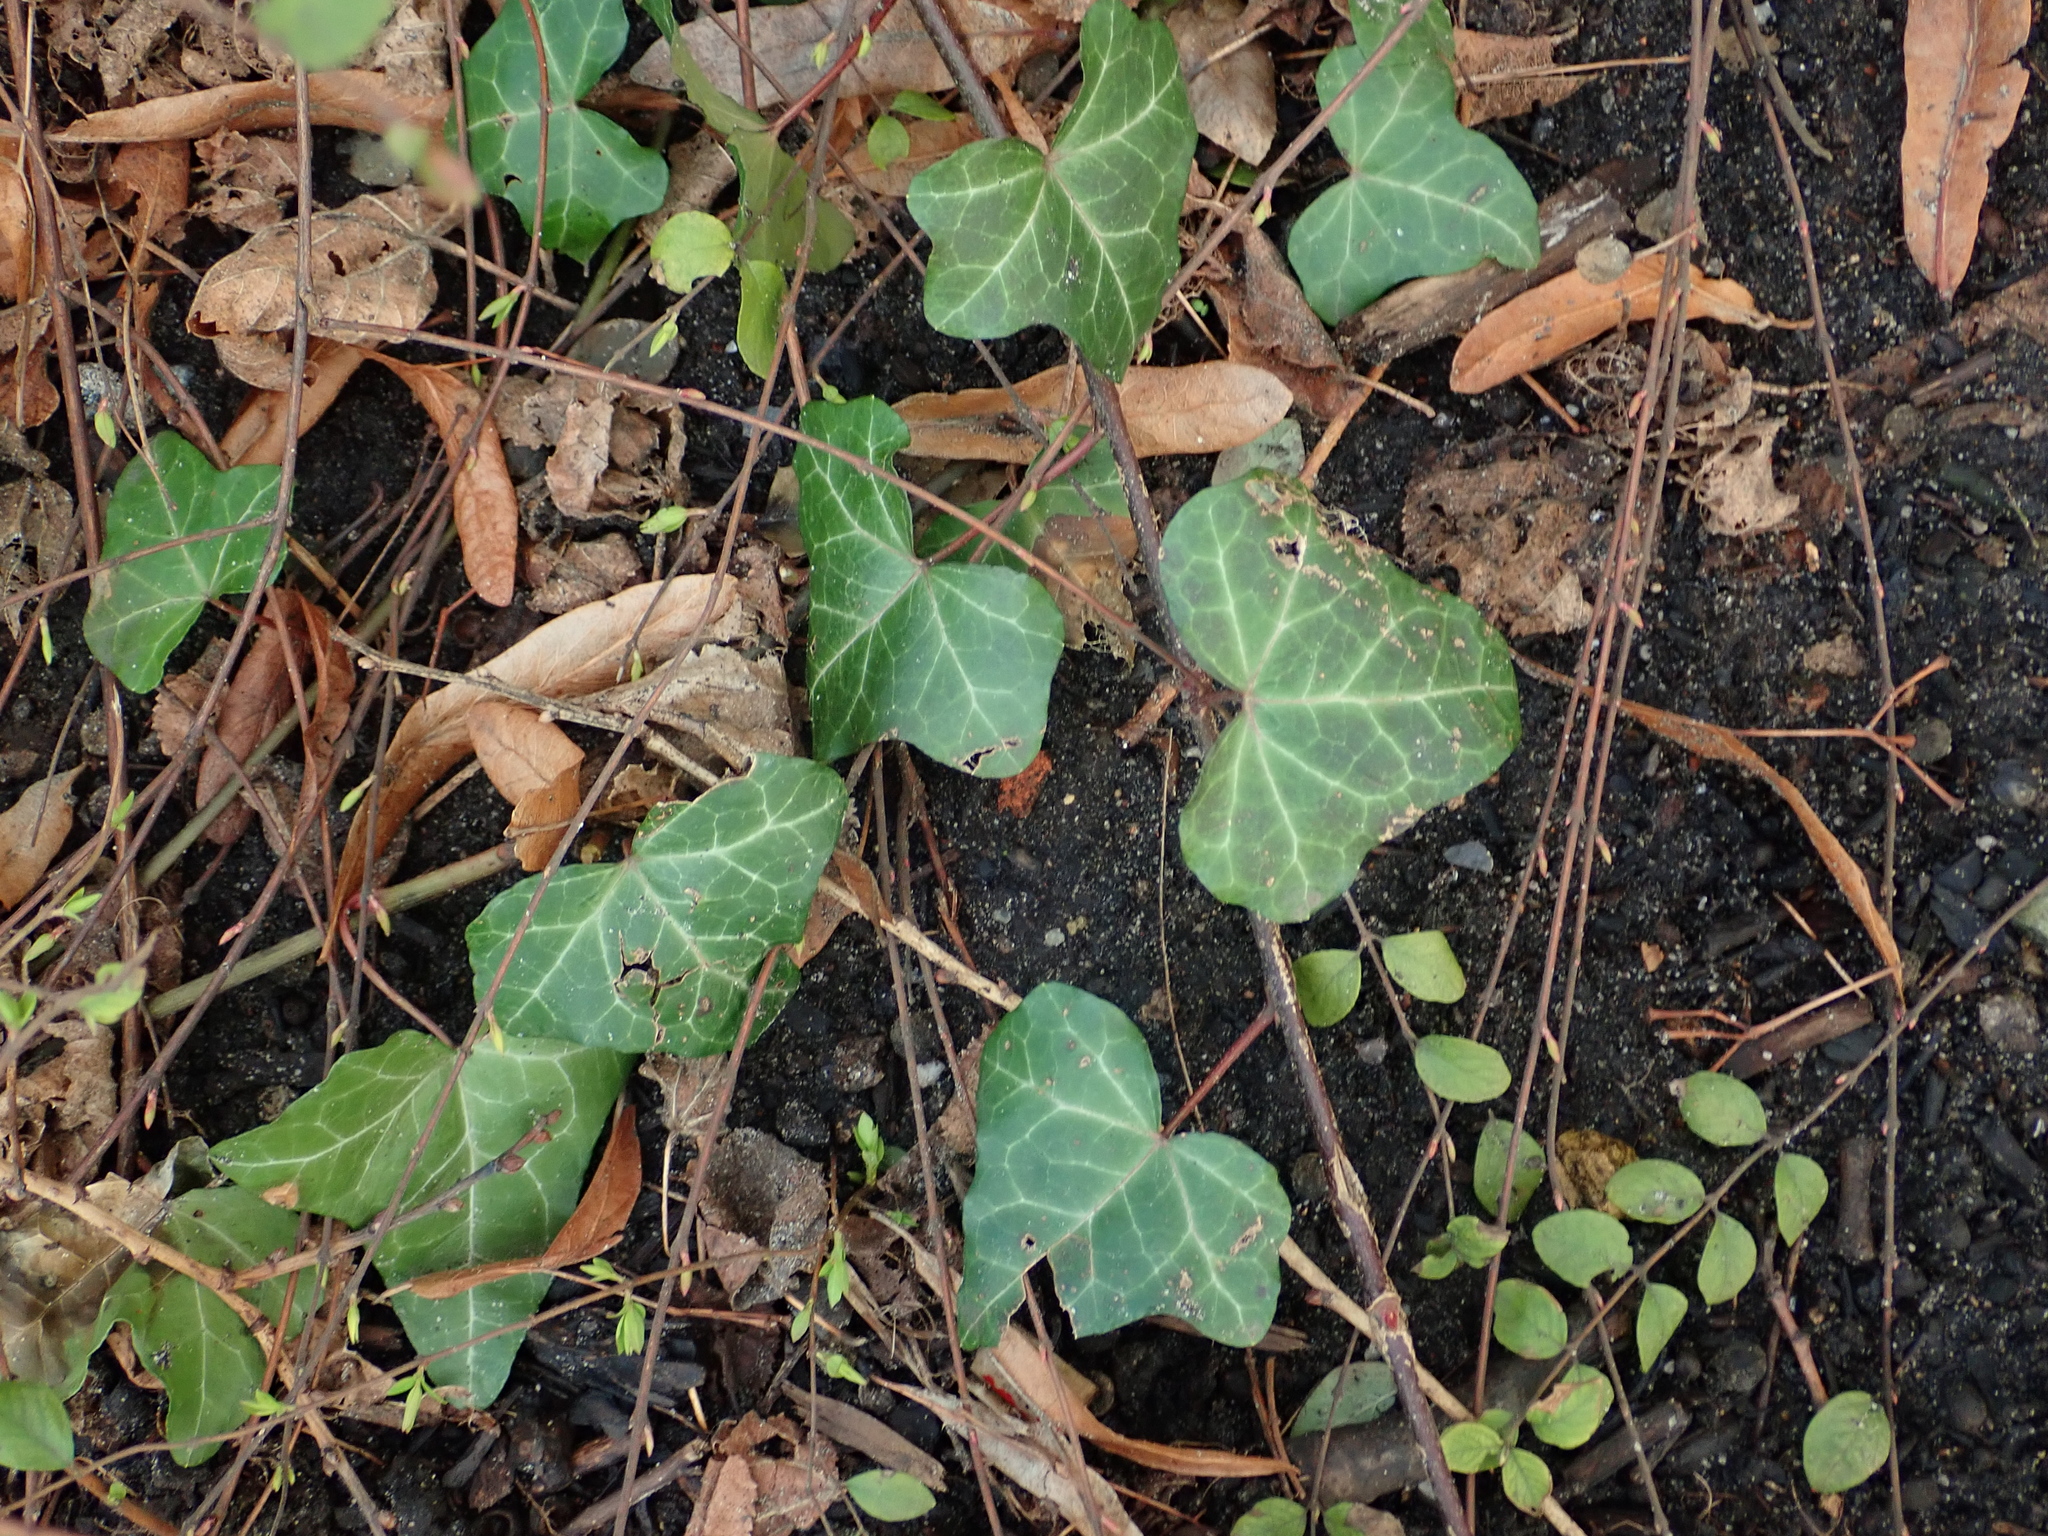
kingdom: Plantae
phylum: Tracheophyta
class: Magnoliopsida
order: Apiales
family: Araliaceae
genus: Hedera
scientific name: Hedera helix
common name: Ivy
